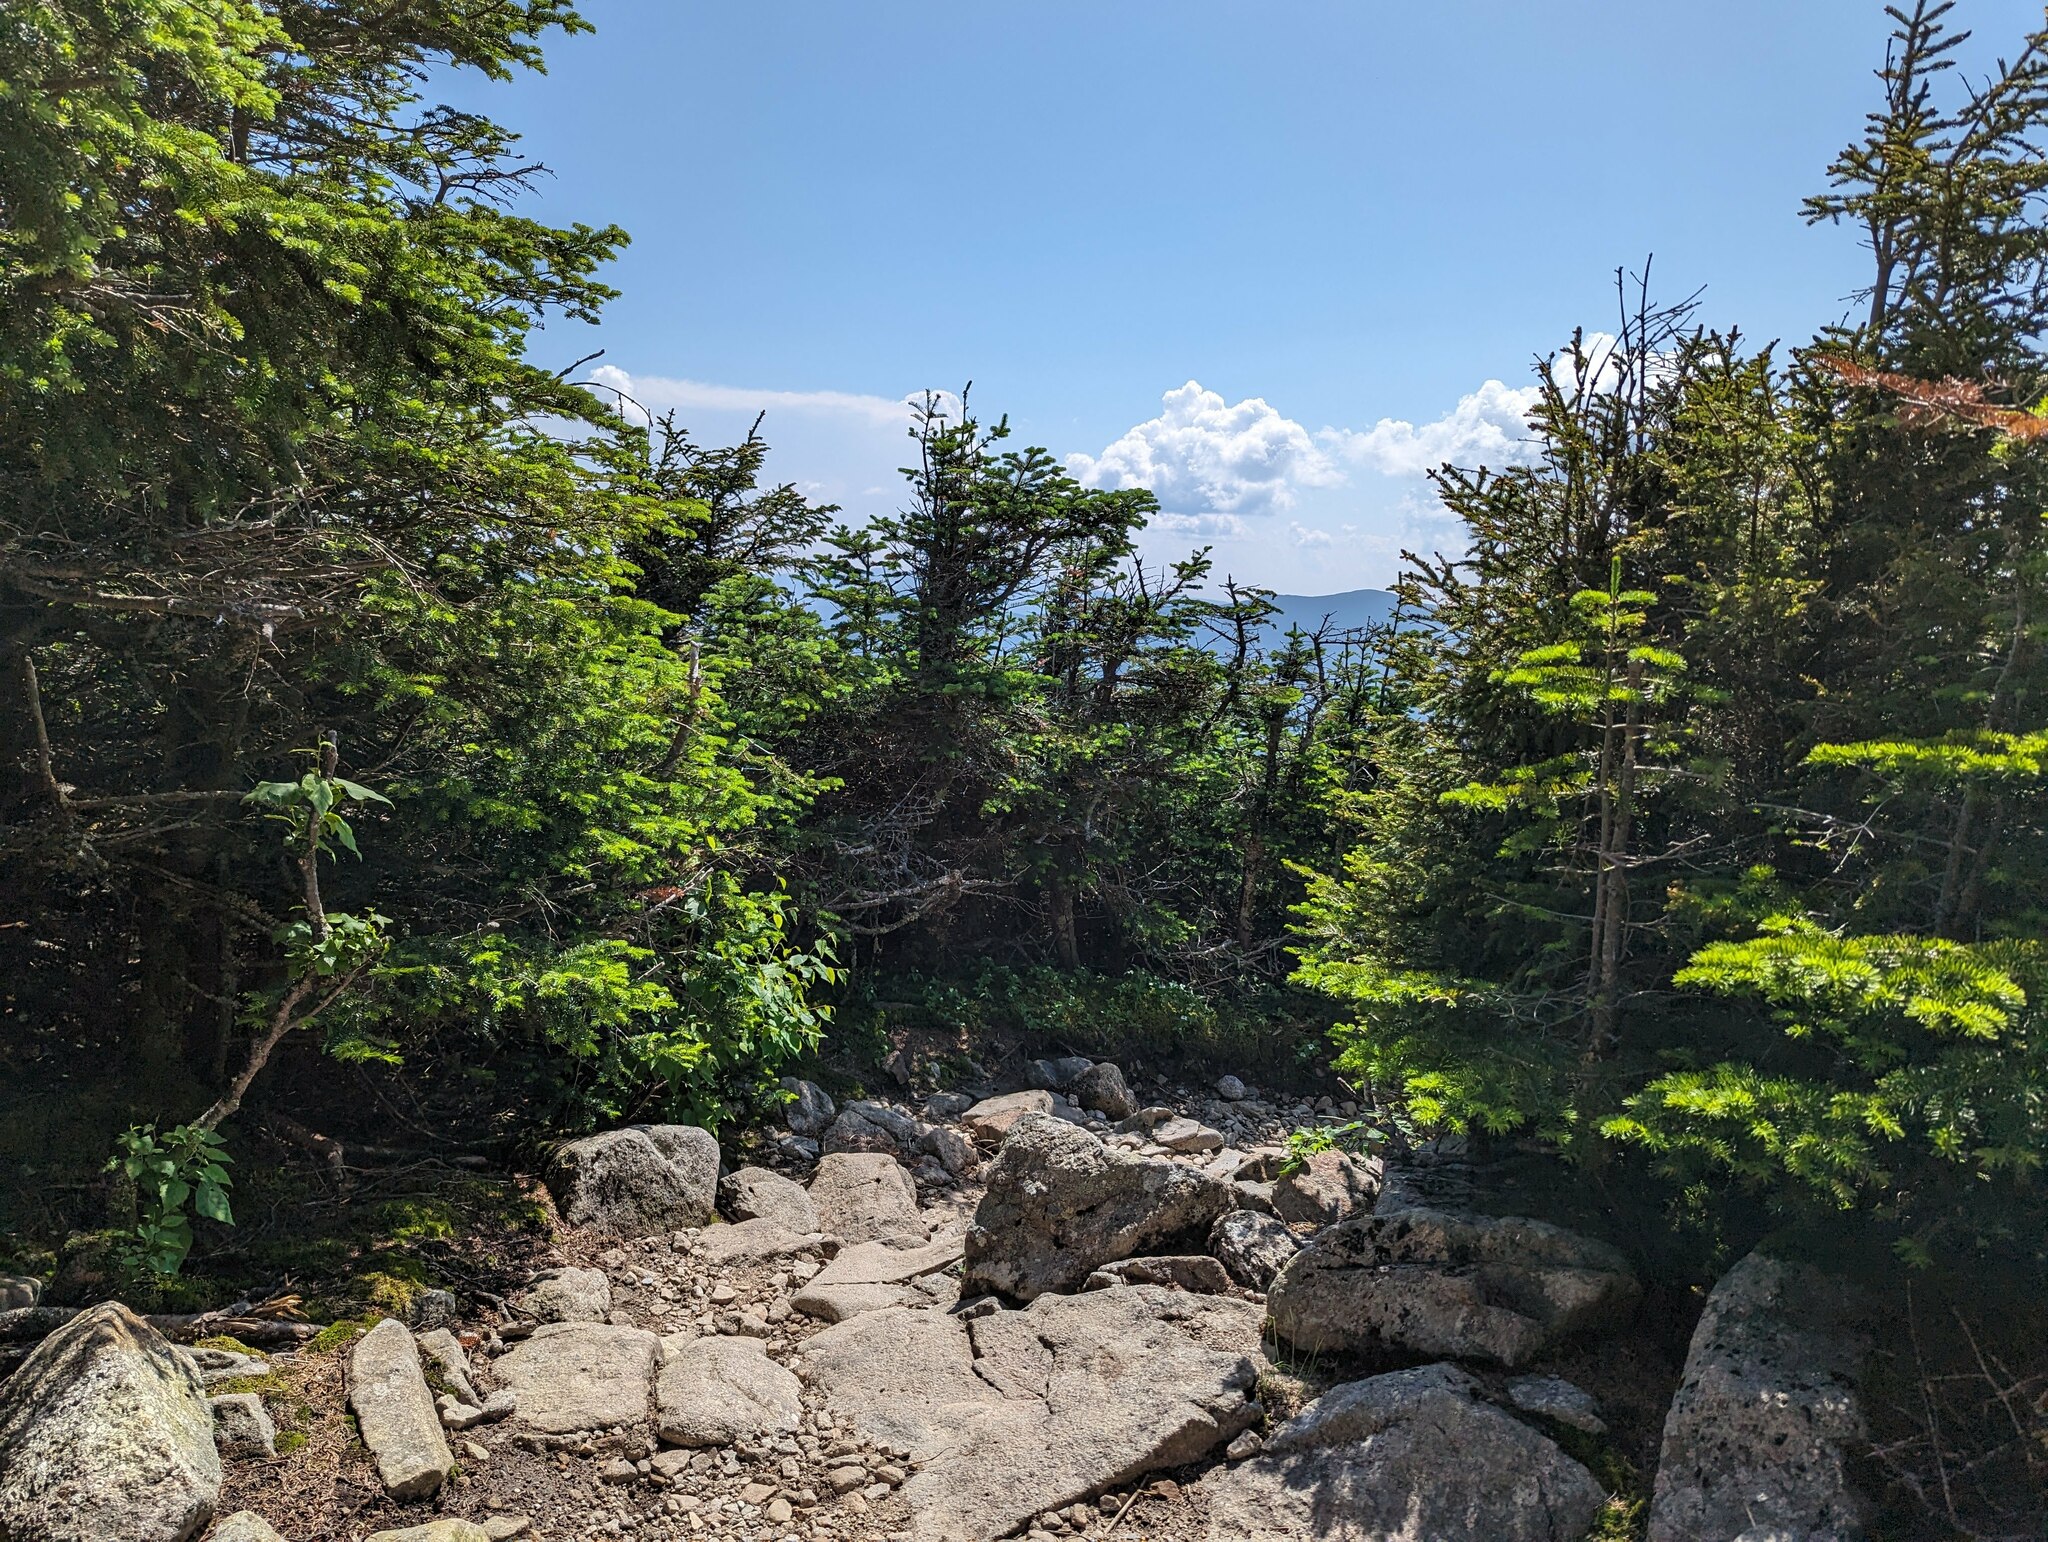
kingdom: Plantae
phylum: Tracheophyta
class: Pinopsida
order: Pinales
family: Pinaceae
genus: Abies
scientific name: Abies balsamea
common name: Balsam fir
